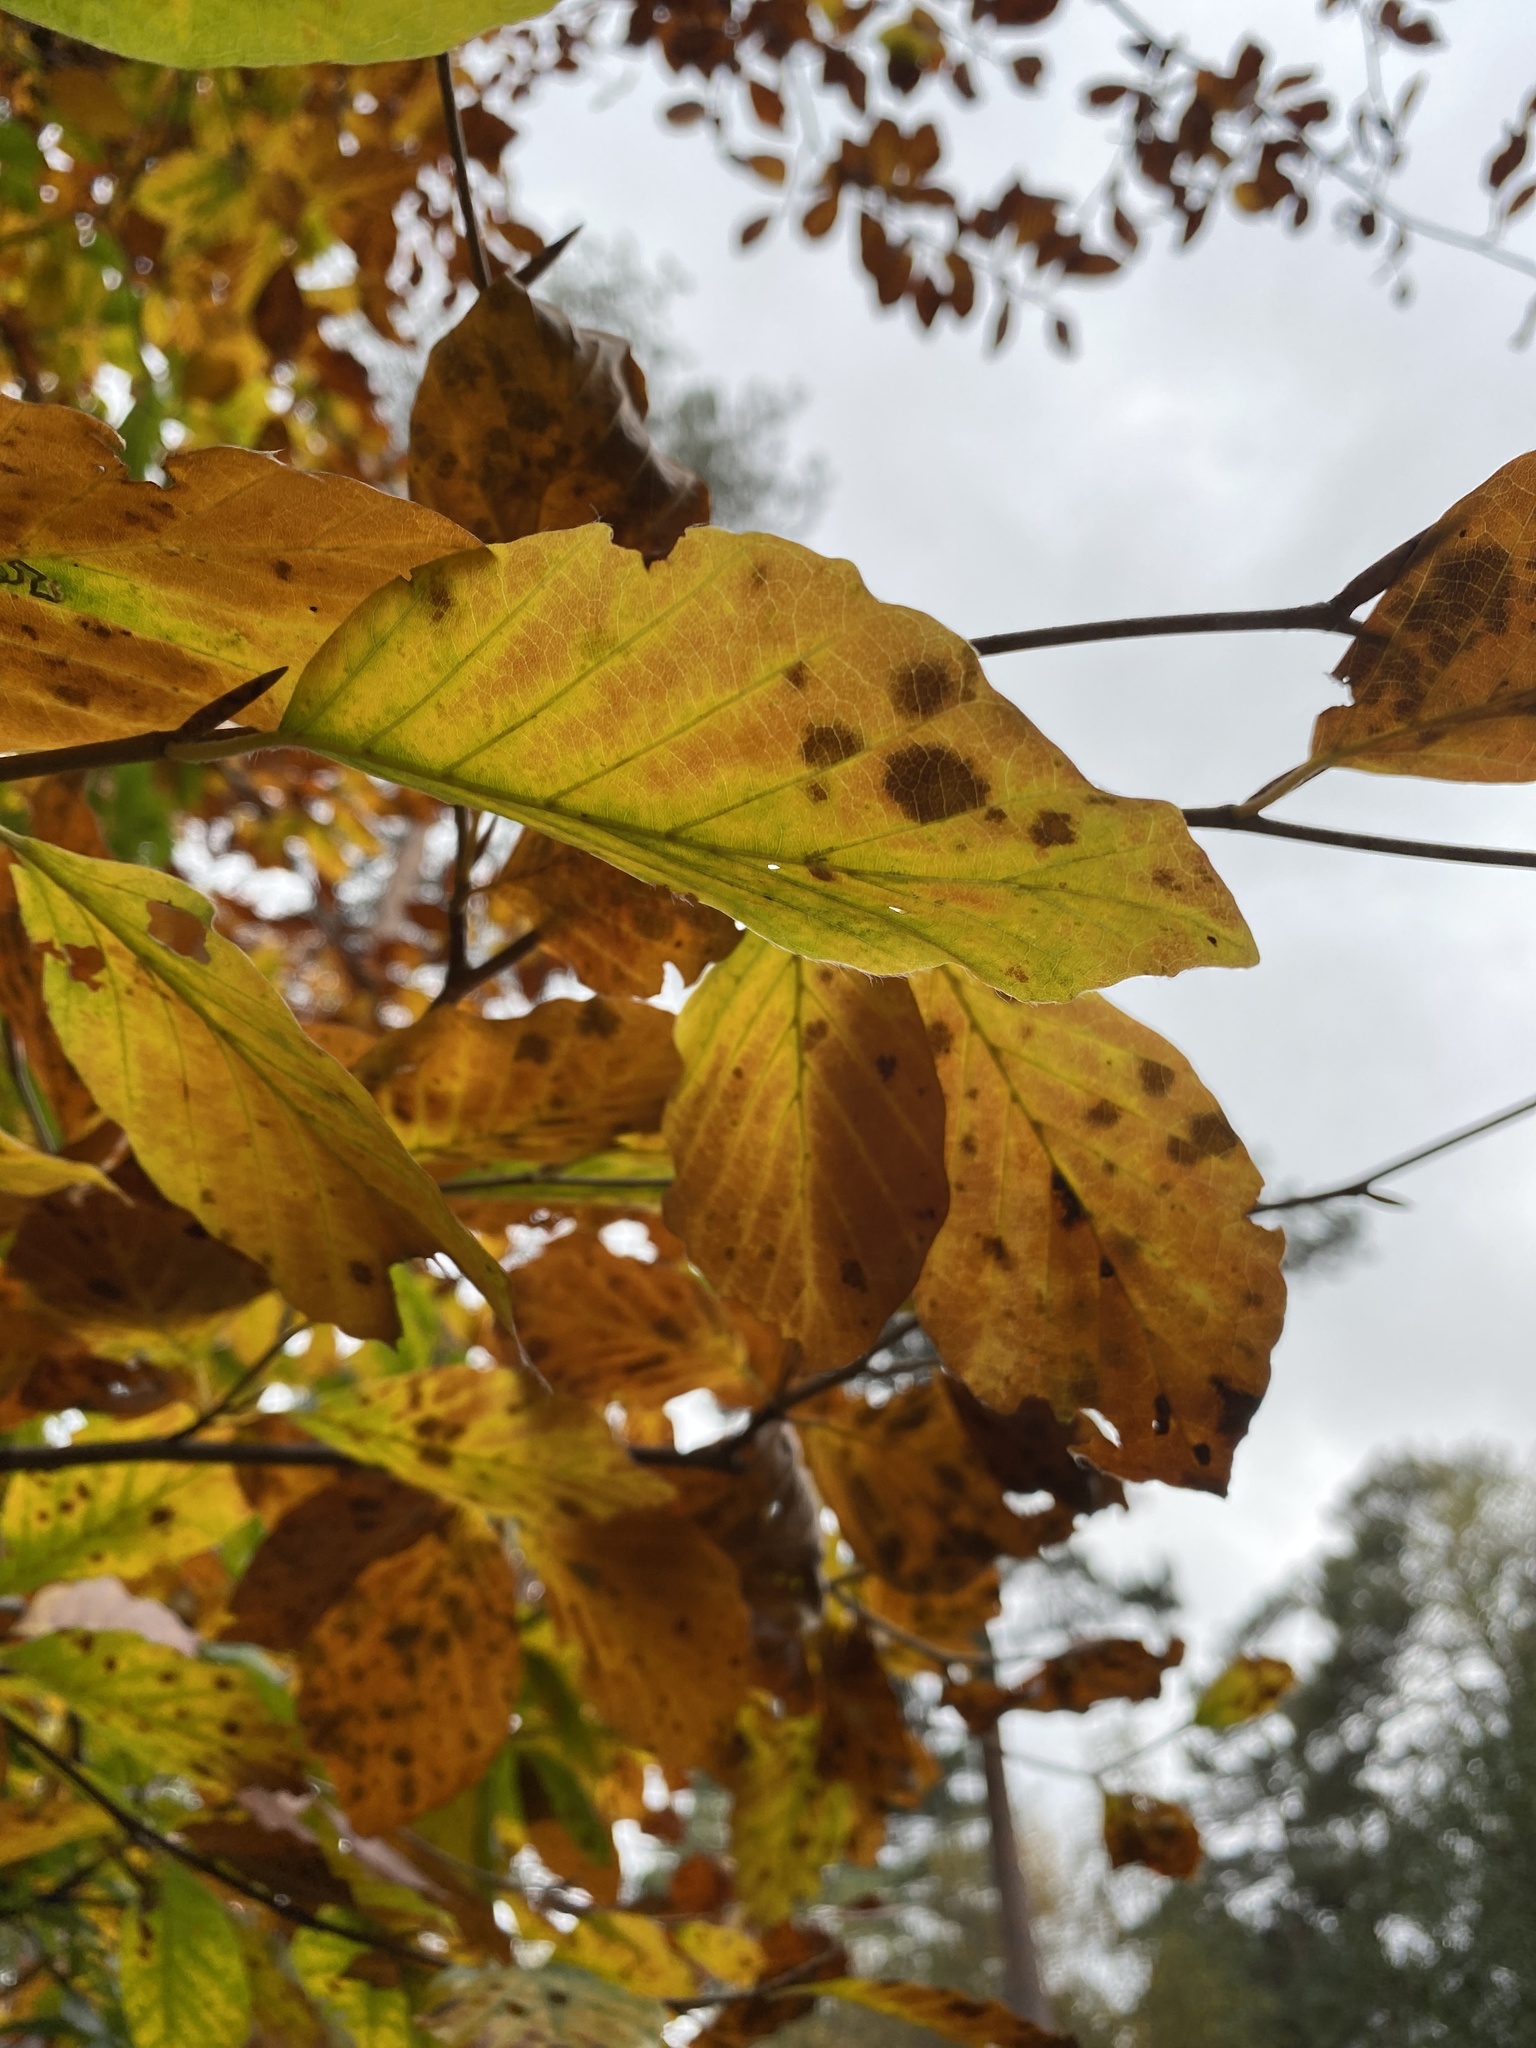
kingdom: Plantae
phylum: Tracheophyta
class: Magnoliopsida
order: Fagales
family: Fagaceae
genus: Fagus
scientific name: Fagus sylvatica
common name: Beech
